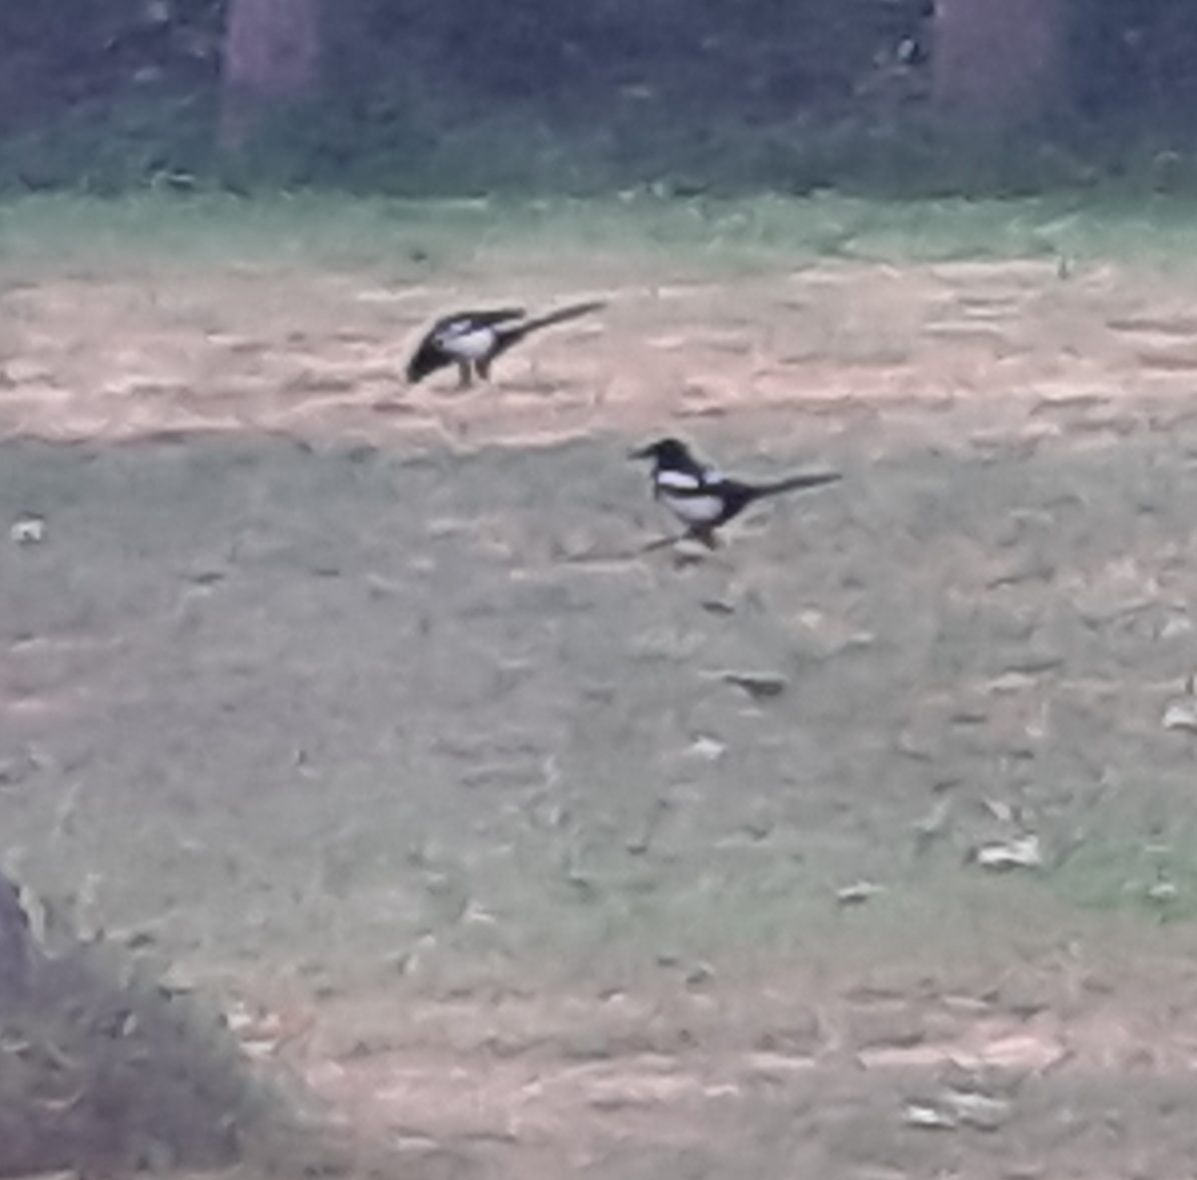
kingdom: Animalia
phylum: Chordata
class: Aves
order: Passeriformes
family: Corvidae
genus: Pica
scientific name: Pica pica
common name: Eurasian magpie
